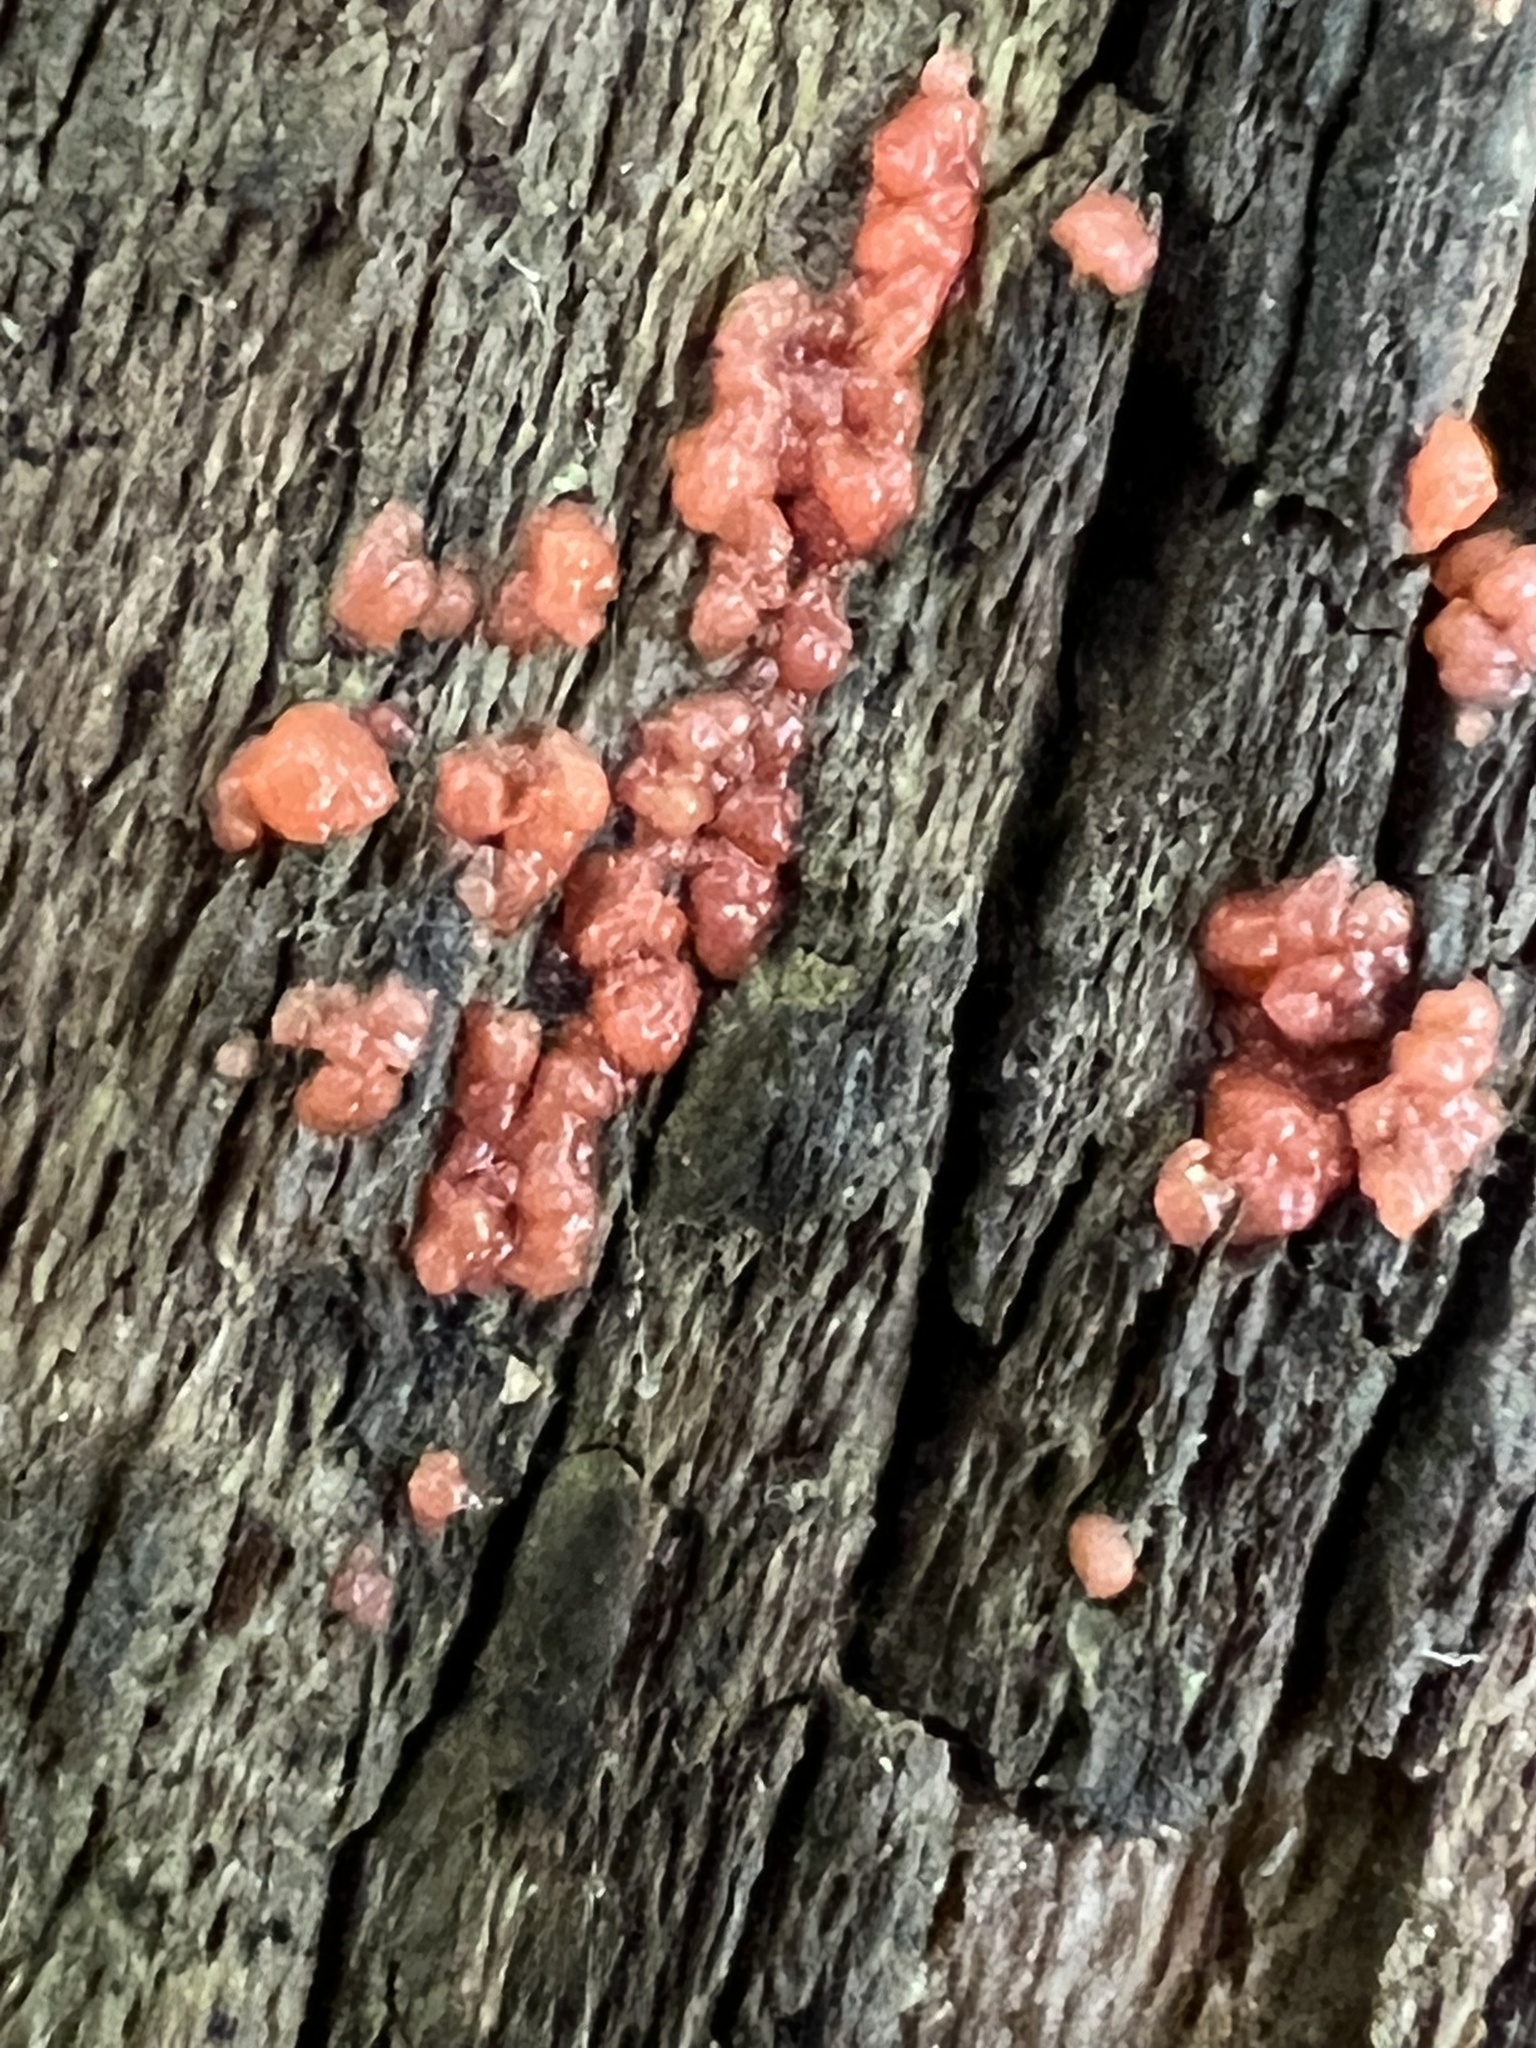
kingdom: Fungi
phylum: Basidiomycota
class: Agaricomycetes
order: Cantharellales
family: Tulasnellaceae
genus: Tulasnella
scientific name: Tulasnella aurantiaca
